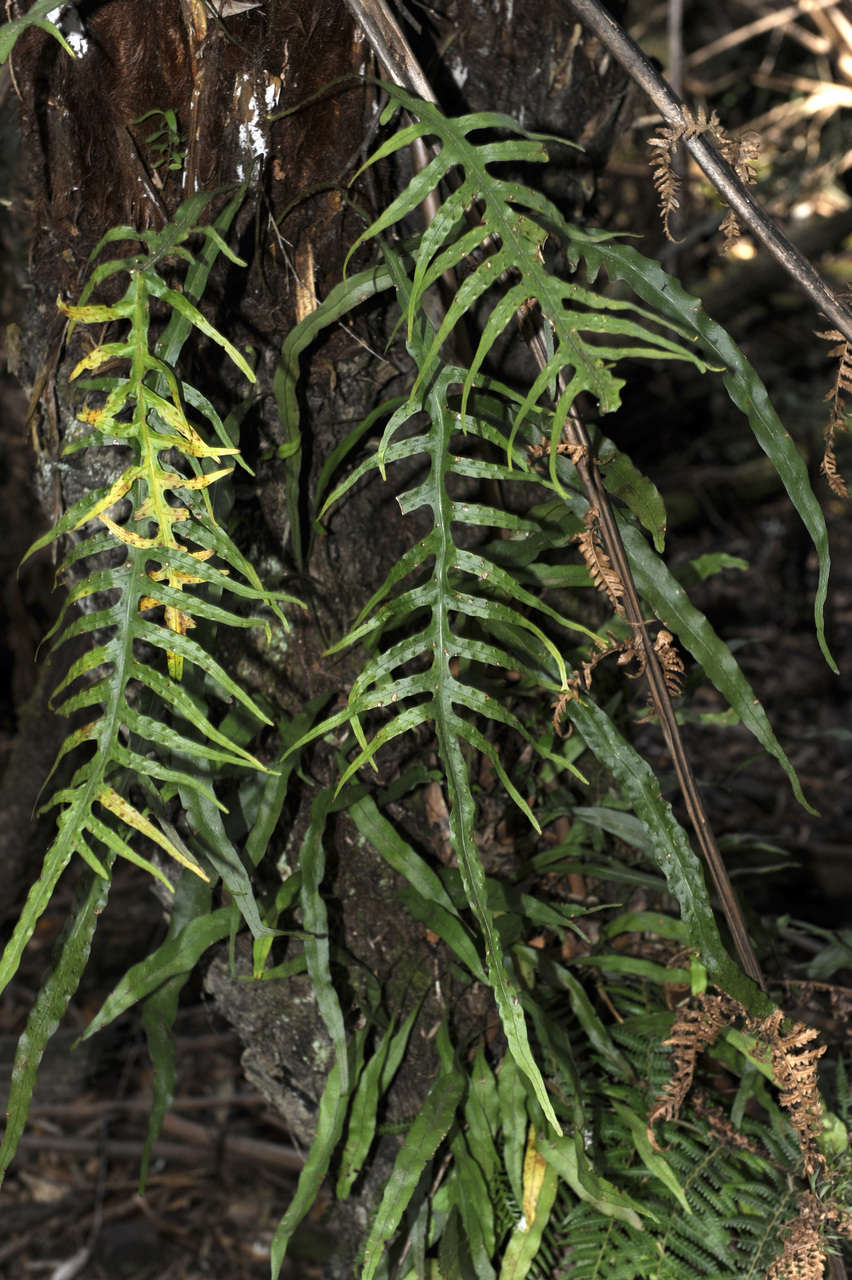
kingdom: Plantae
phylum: Tracheophyta
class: Polypodiopsida
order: Polypodiales
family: Polypodiaceae
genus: Lecanopteris
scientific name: Lecanopteris scandens
